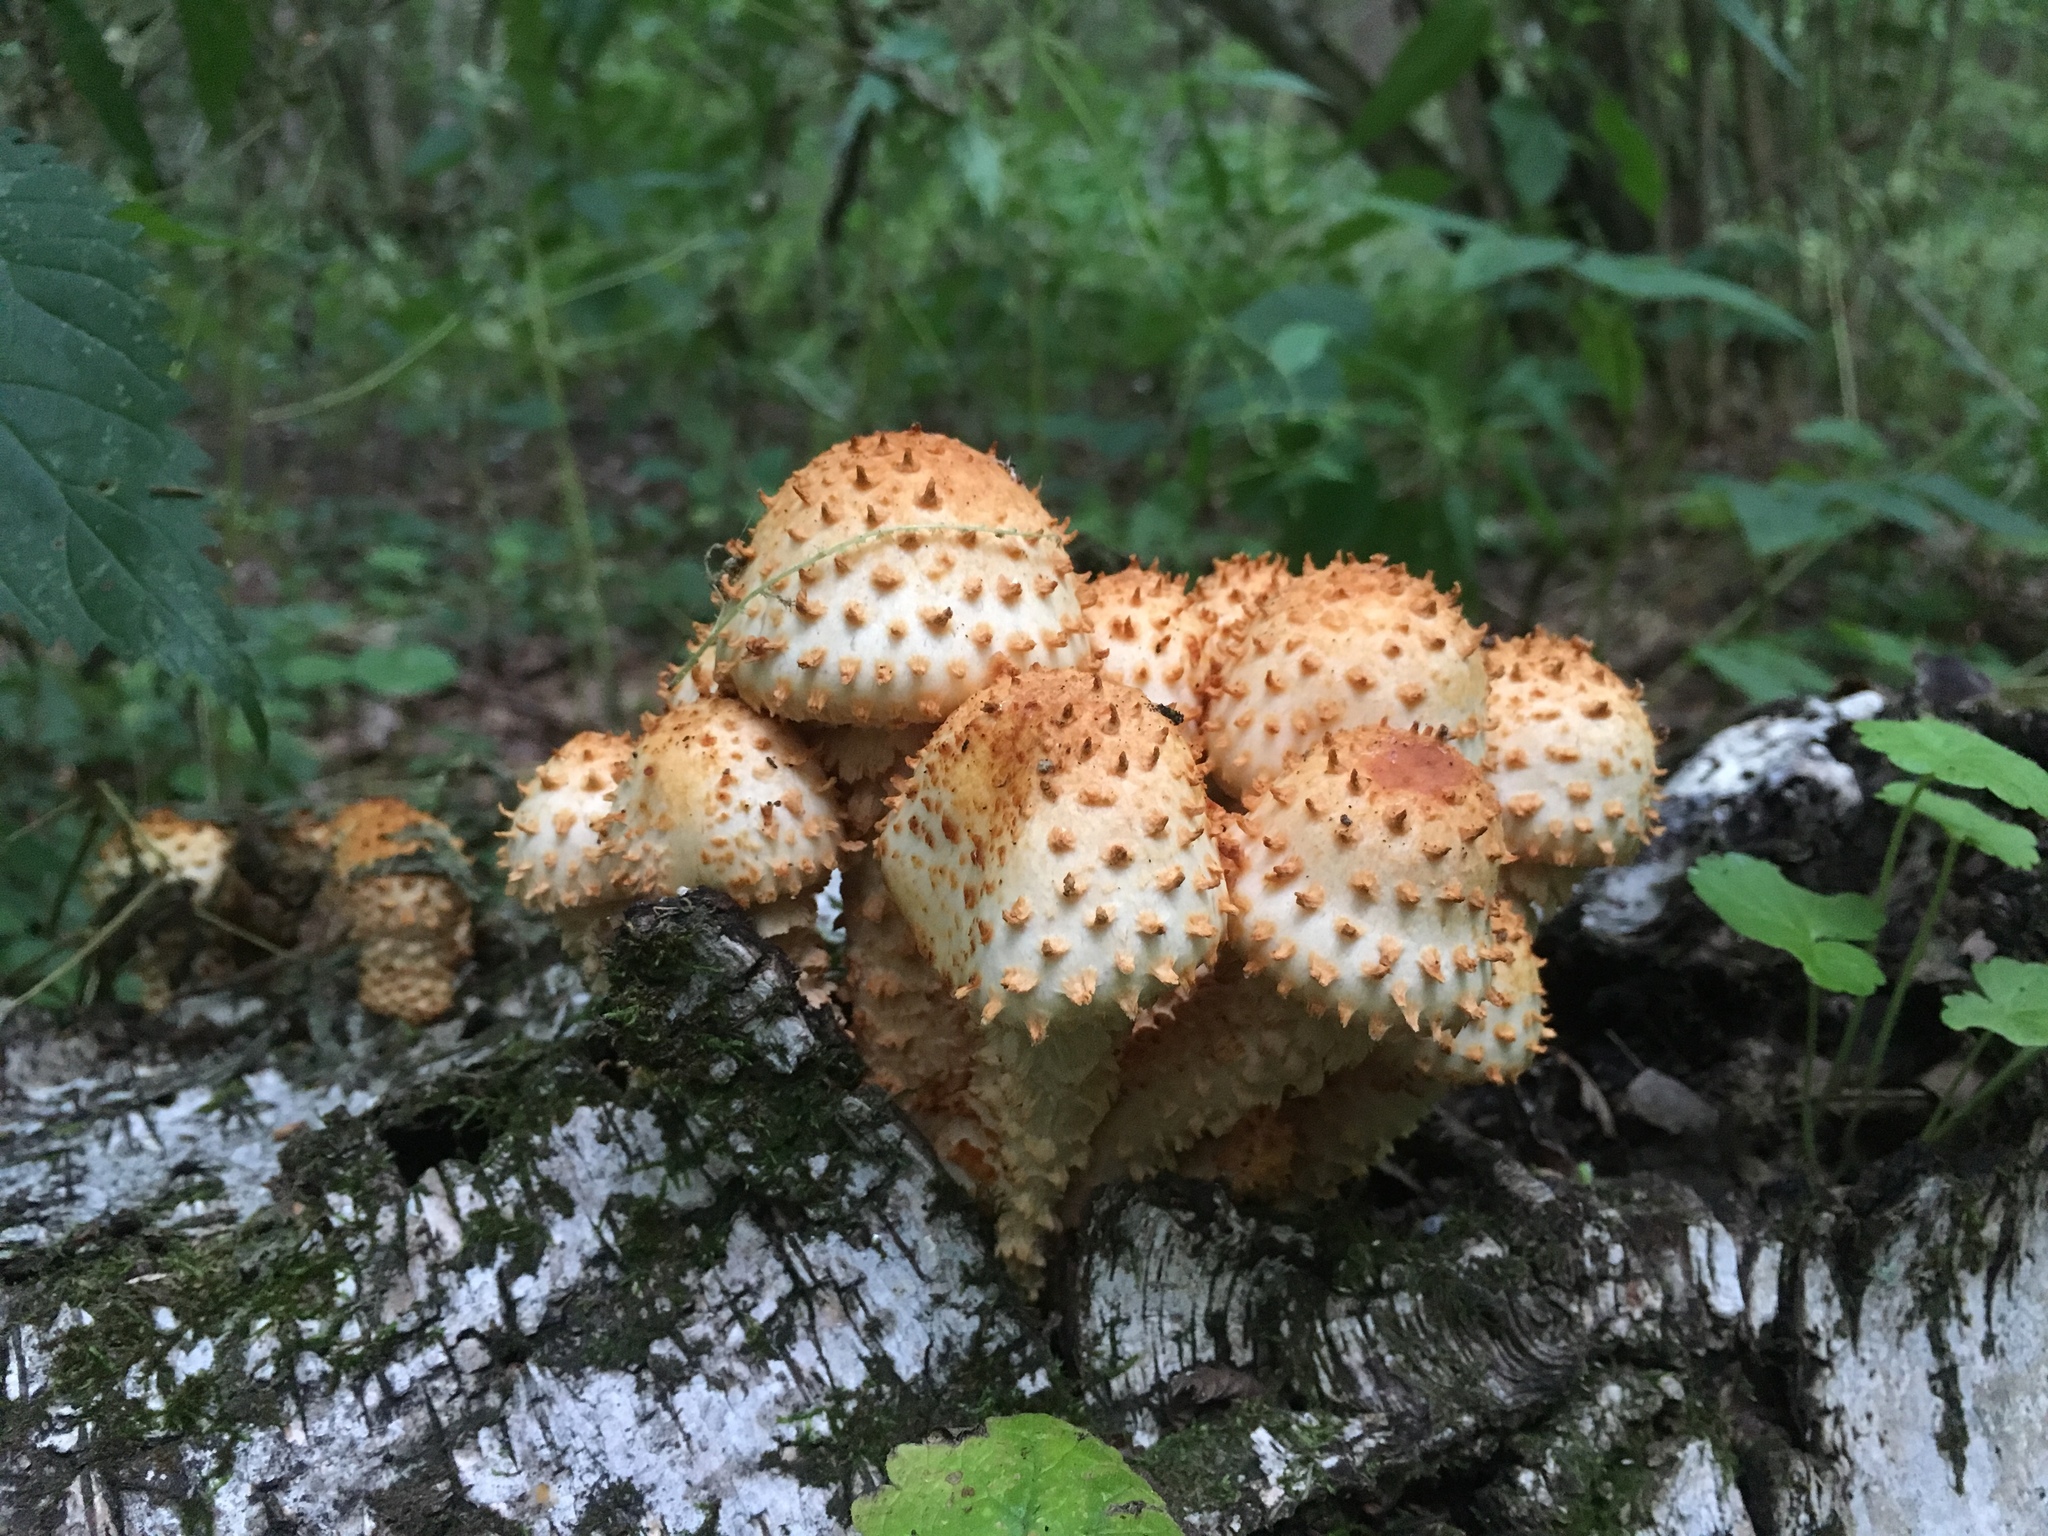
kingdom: Fungi
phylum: Basidiomycota
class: Agaricomycetes
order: Agaricales
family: Strophariaceae
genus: Pholiota
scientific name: Pholiota squarrosa
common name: Shaggy pholiota
